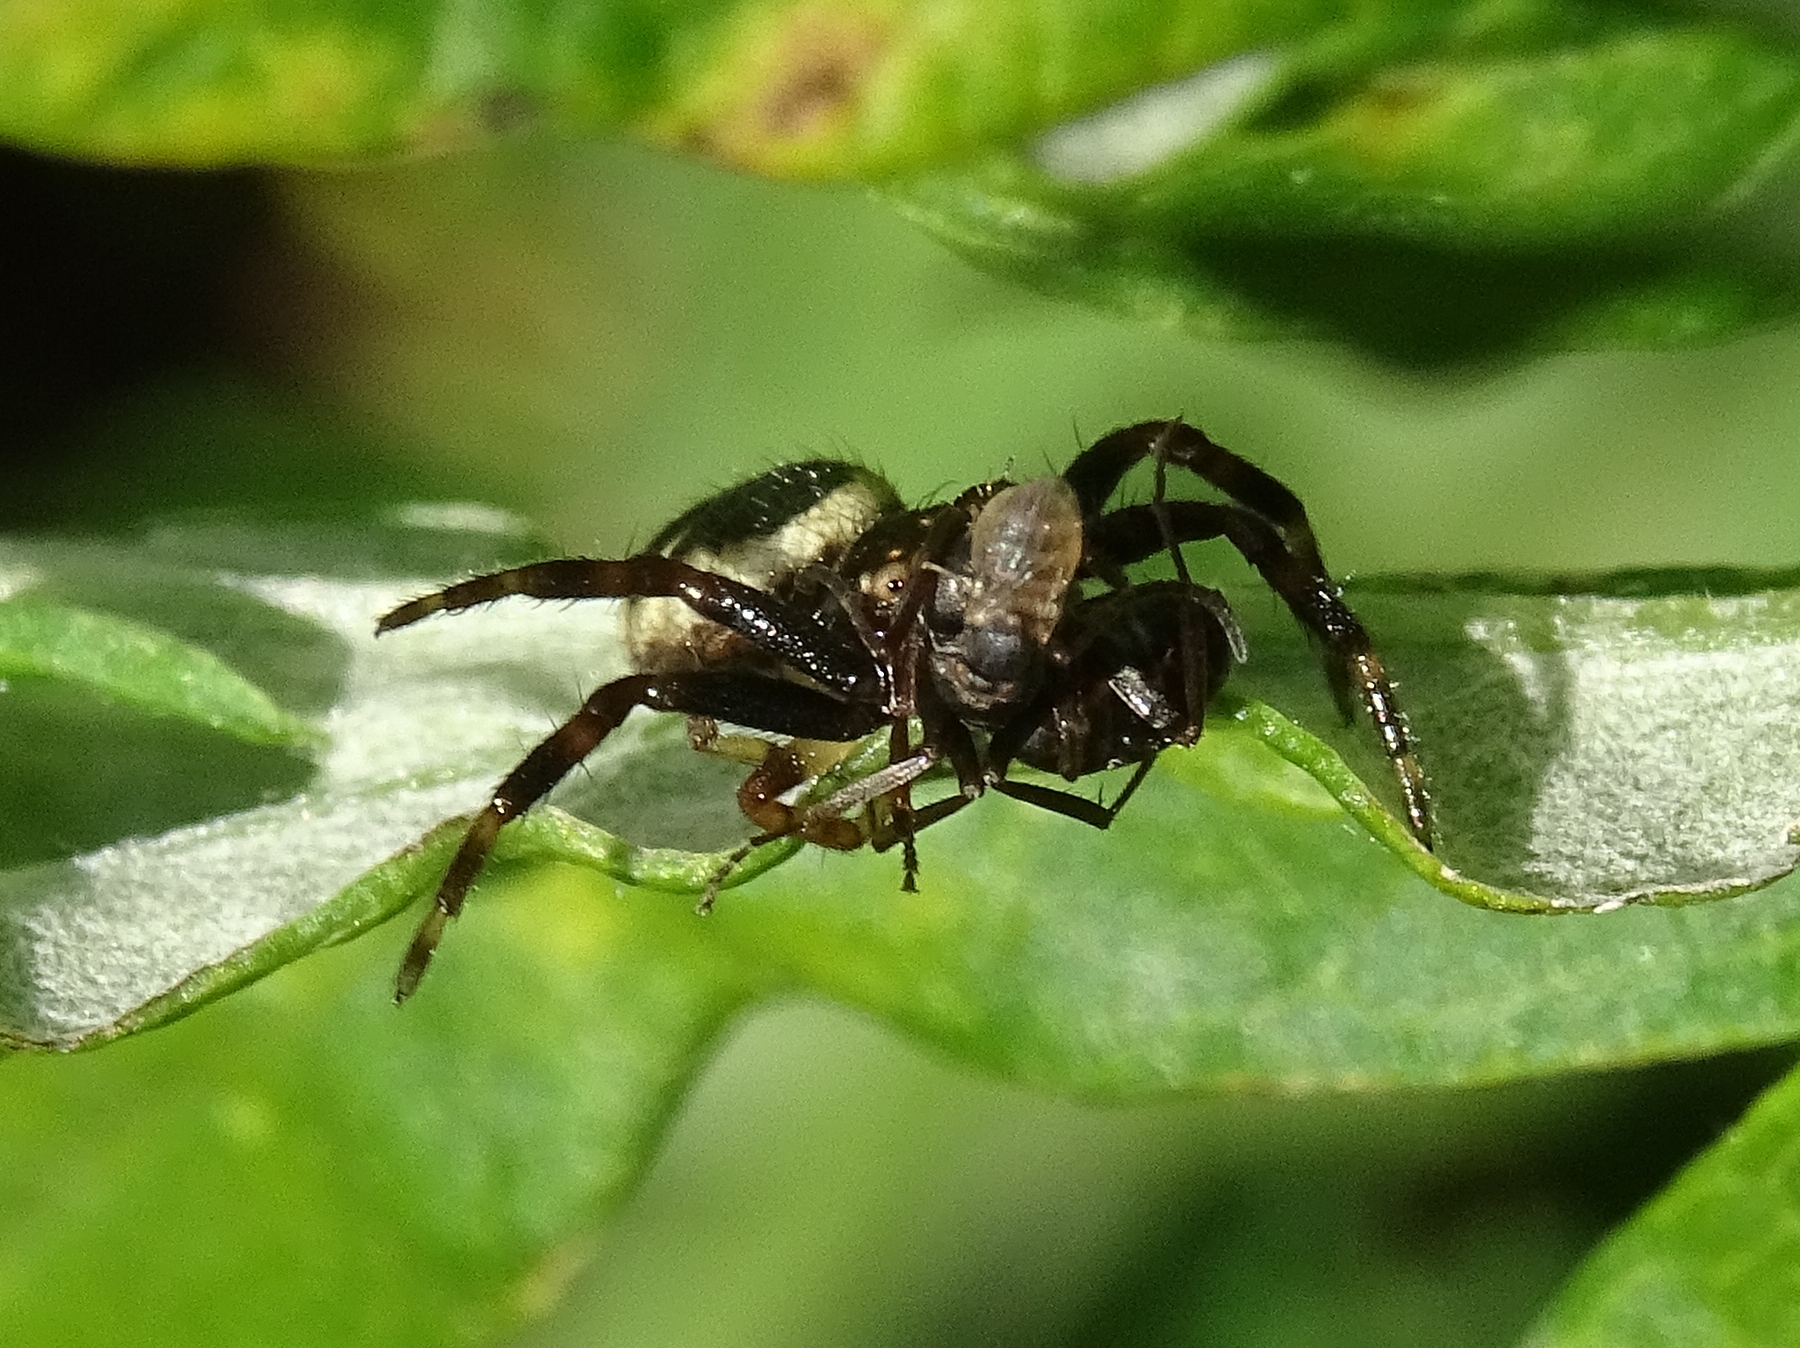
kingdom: Animalia
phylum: Arthropoda
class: Arachnida
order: Araneae
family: Thomisidae
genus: Synema
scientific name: Synema globosum
